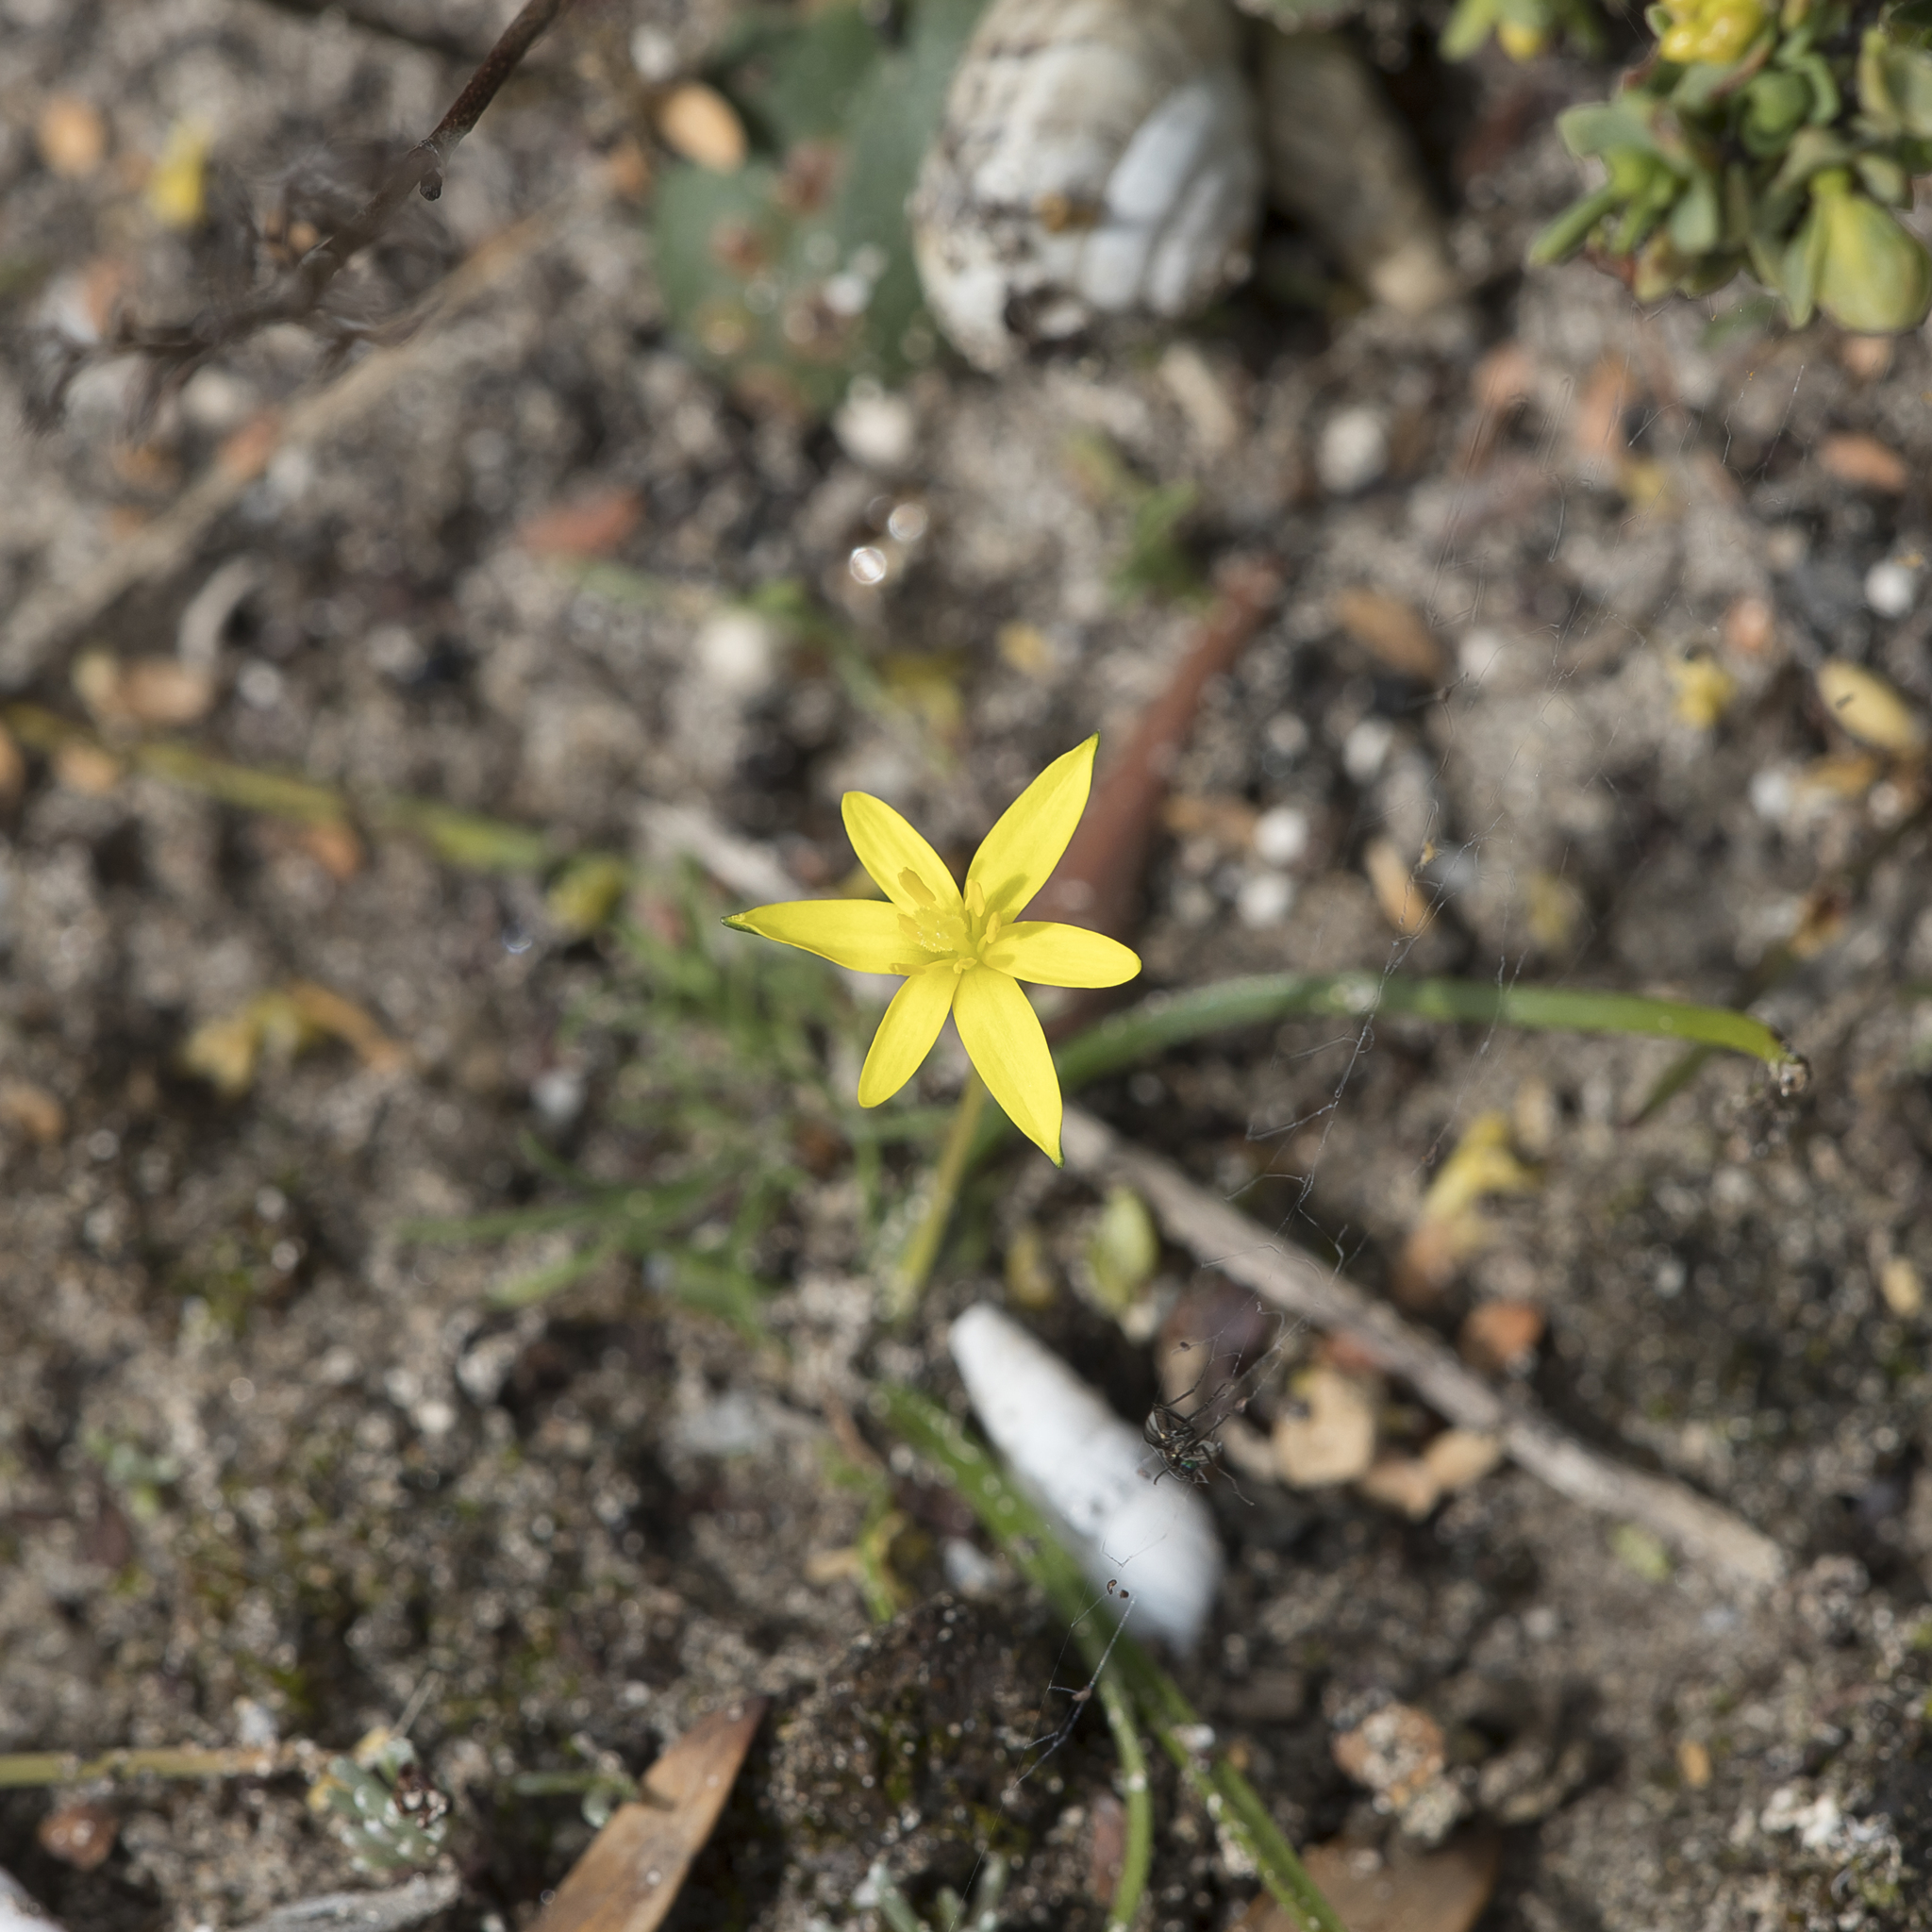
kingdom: Plantae
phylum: Tracheophyta
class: Liliopsida
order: Asparagales
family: Hypoxidaceae
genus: Pauridia
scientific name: Pauridia glabella
